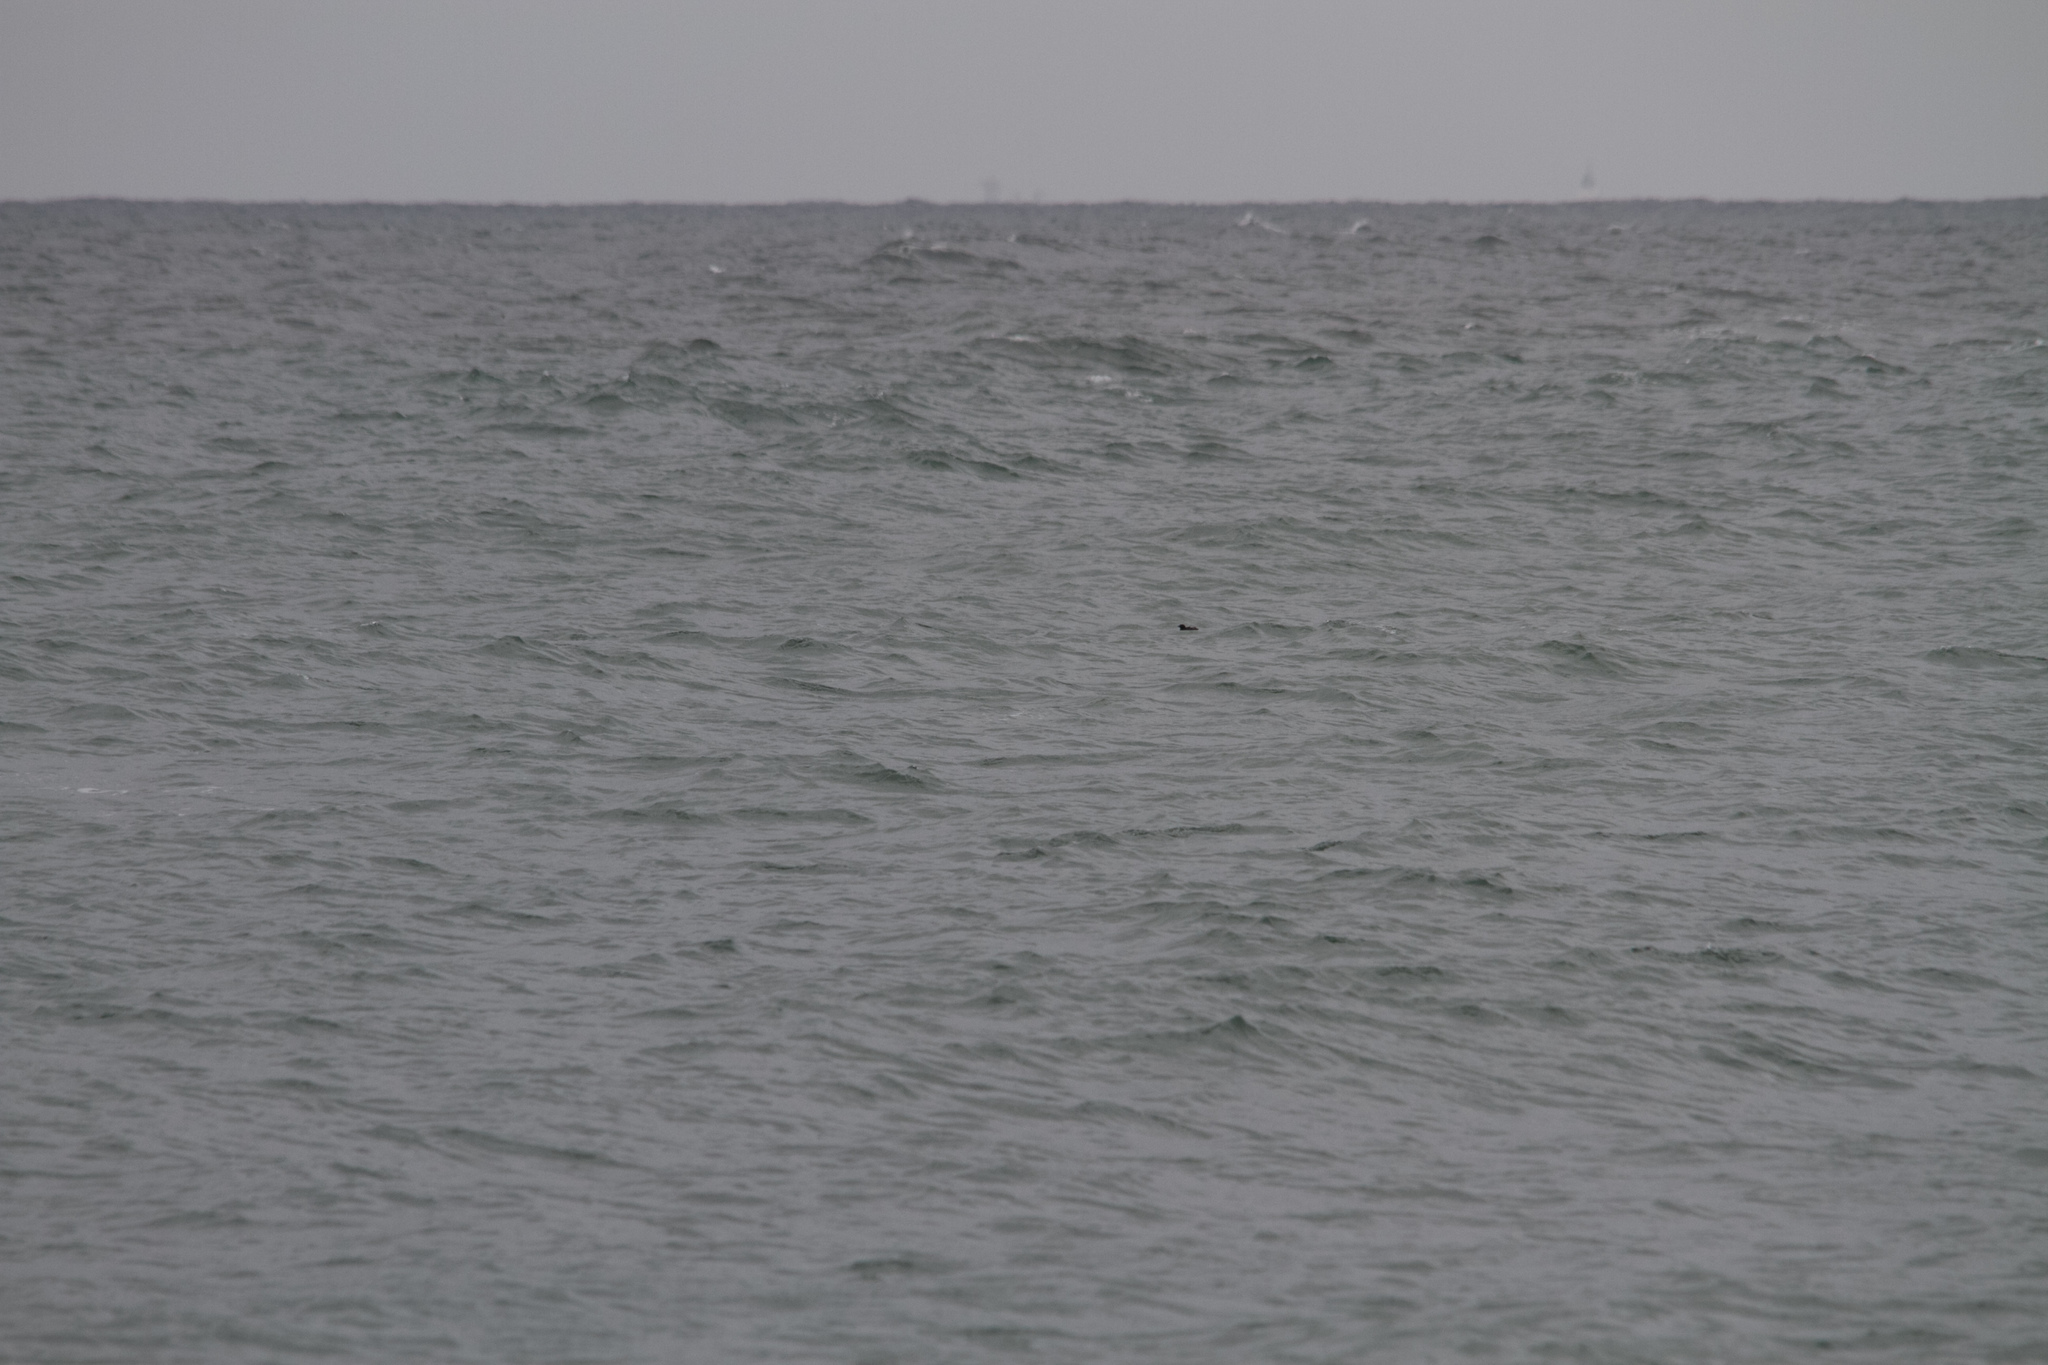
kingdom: Animalia
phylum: Chordata
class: Aves
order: Charadriiformes
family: Alcidae
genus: Cepphus
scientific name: Cepphus grylle
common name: Black guillemot
